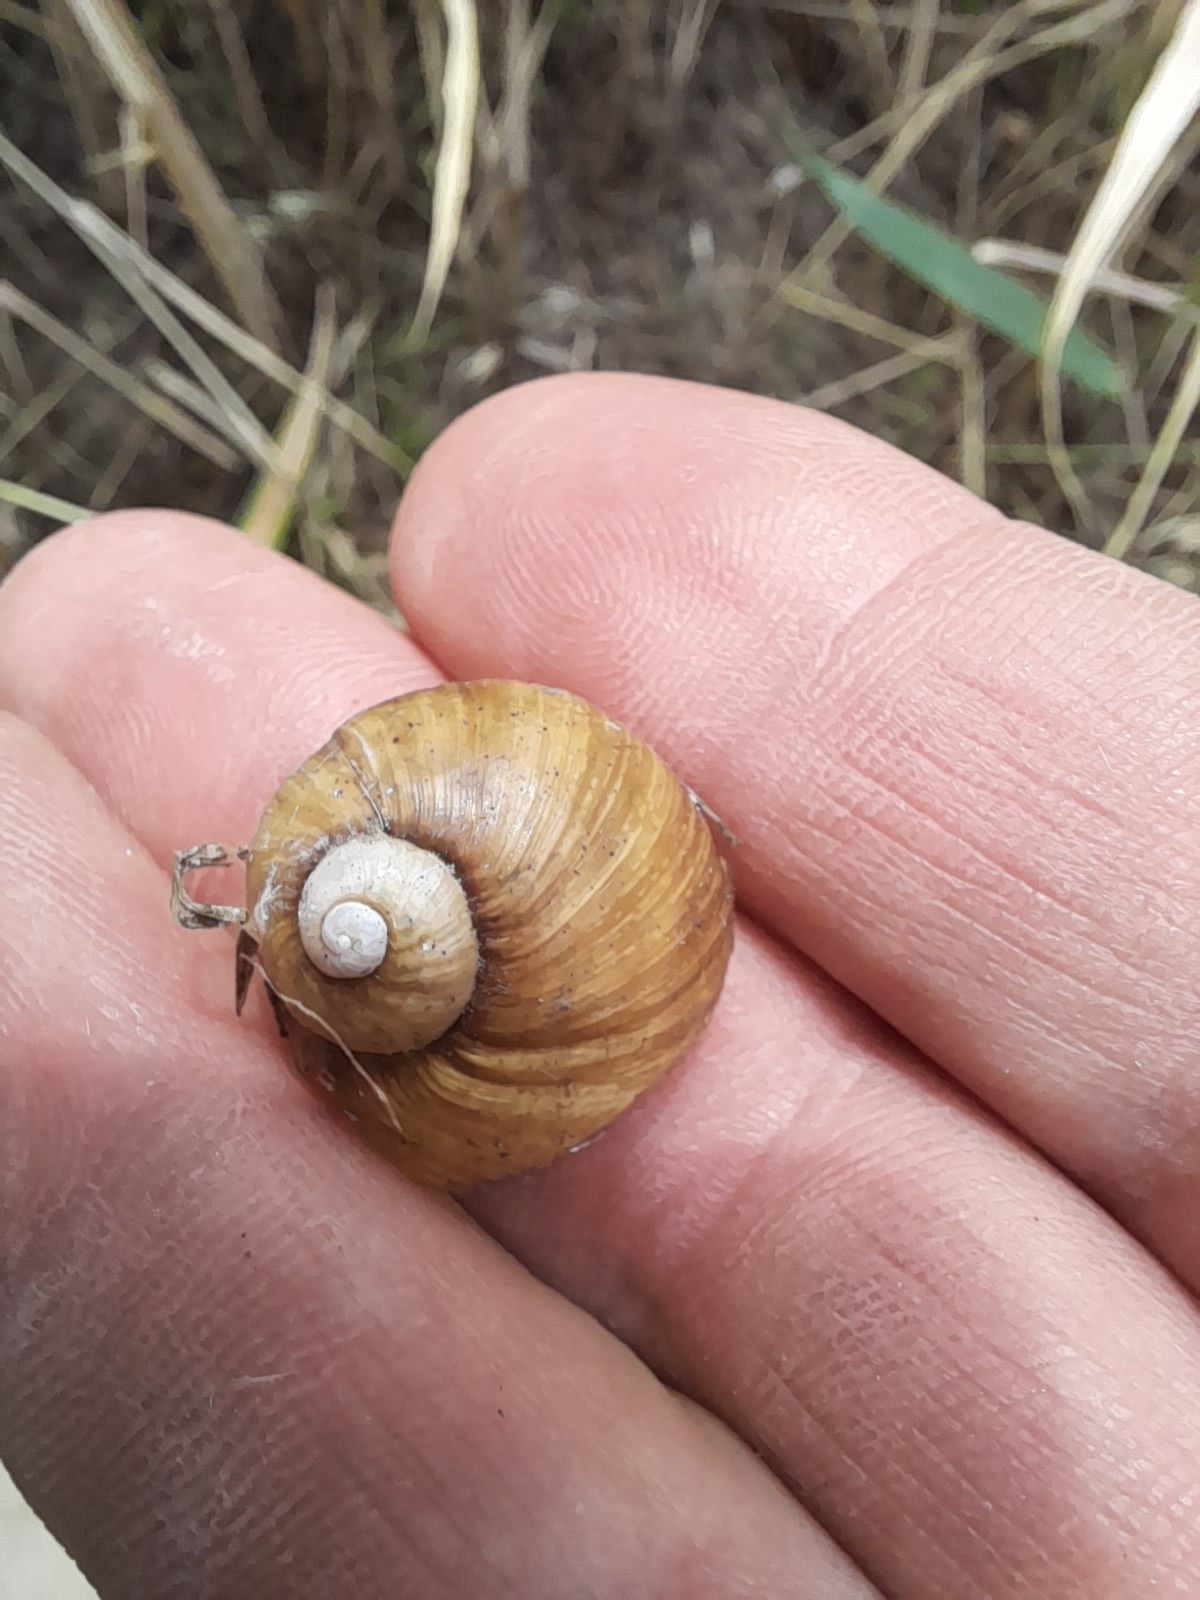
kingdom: Animalia
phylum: Mollusca
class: Gastropoda
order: Stylommatophora
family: Helicidae
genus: Cantareus
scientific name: Cantareus apertus
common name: Green gardensnail
